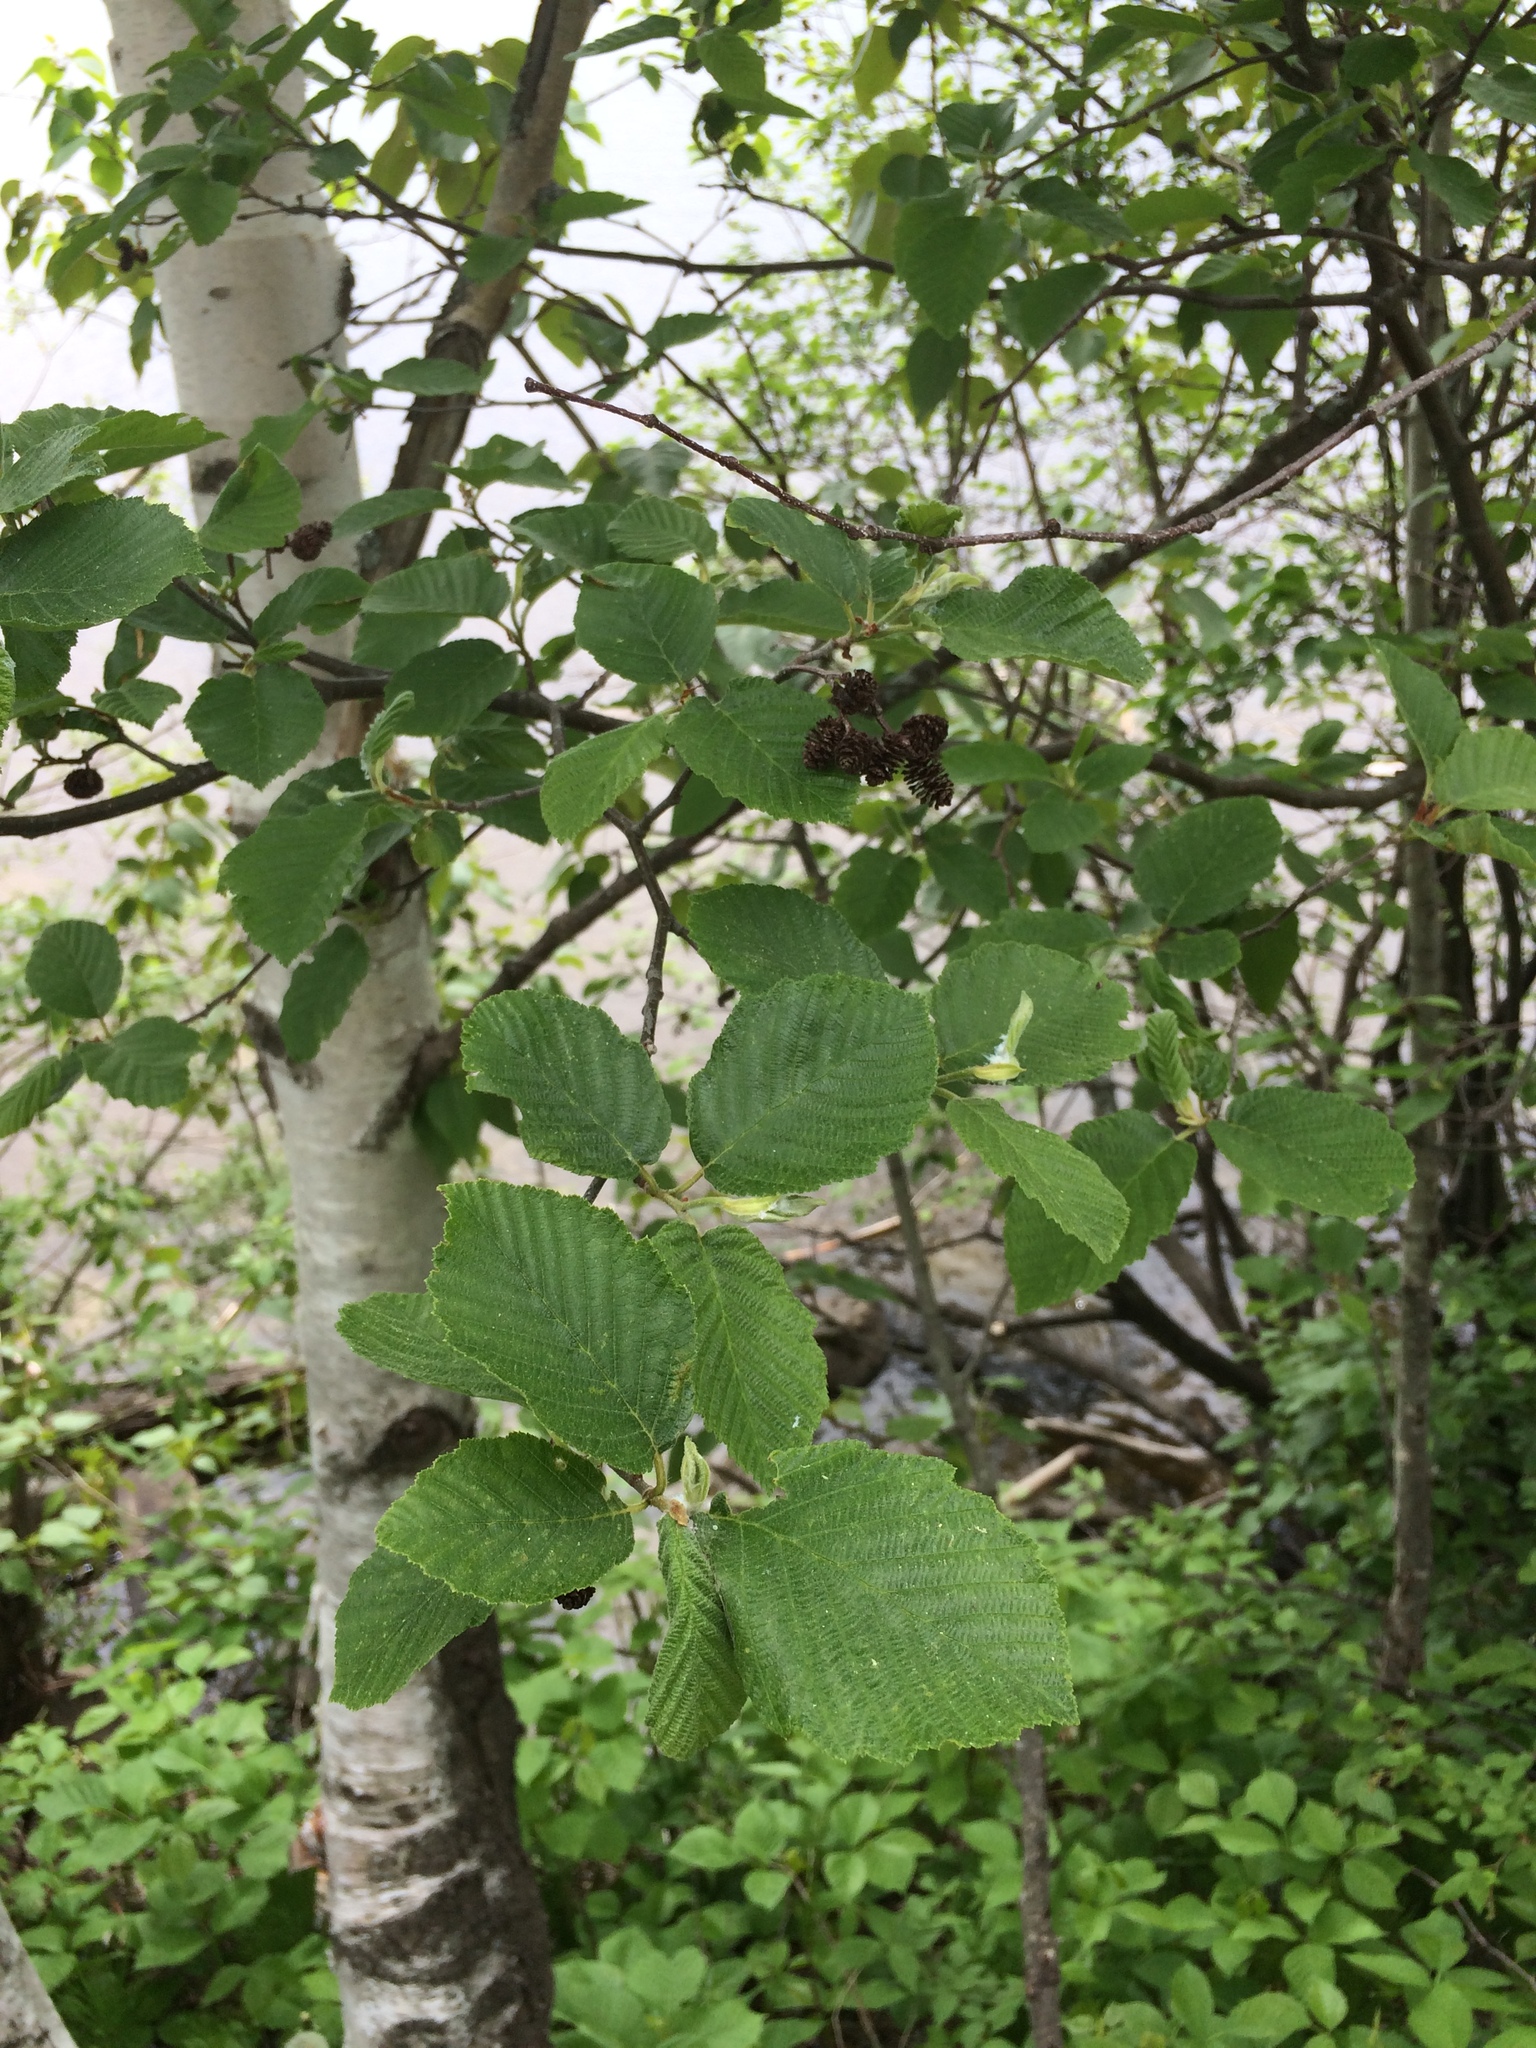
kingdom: Plantae
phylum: Tracheophyta
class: Magnoliopsida
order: Fagales
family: Betulaceae
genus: Alnus
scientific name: Alnus incana
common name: Grey alder
